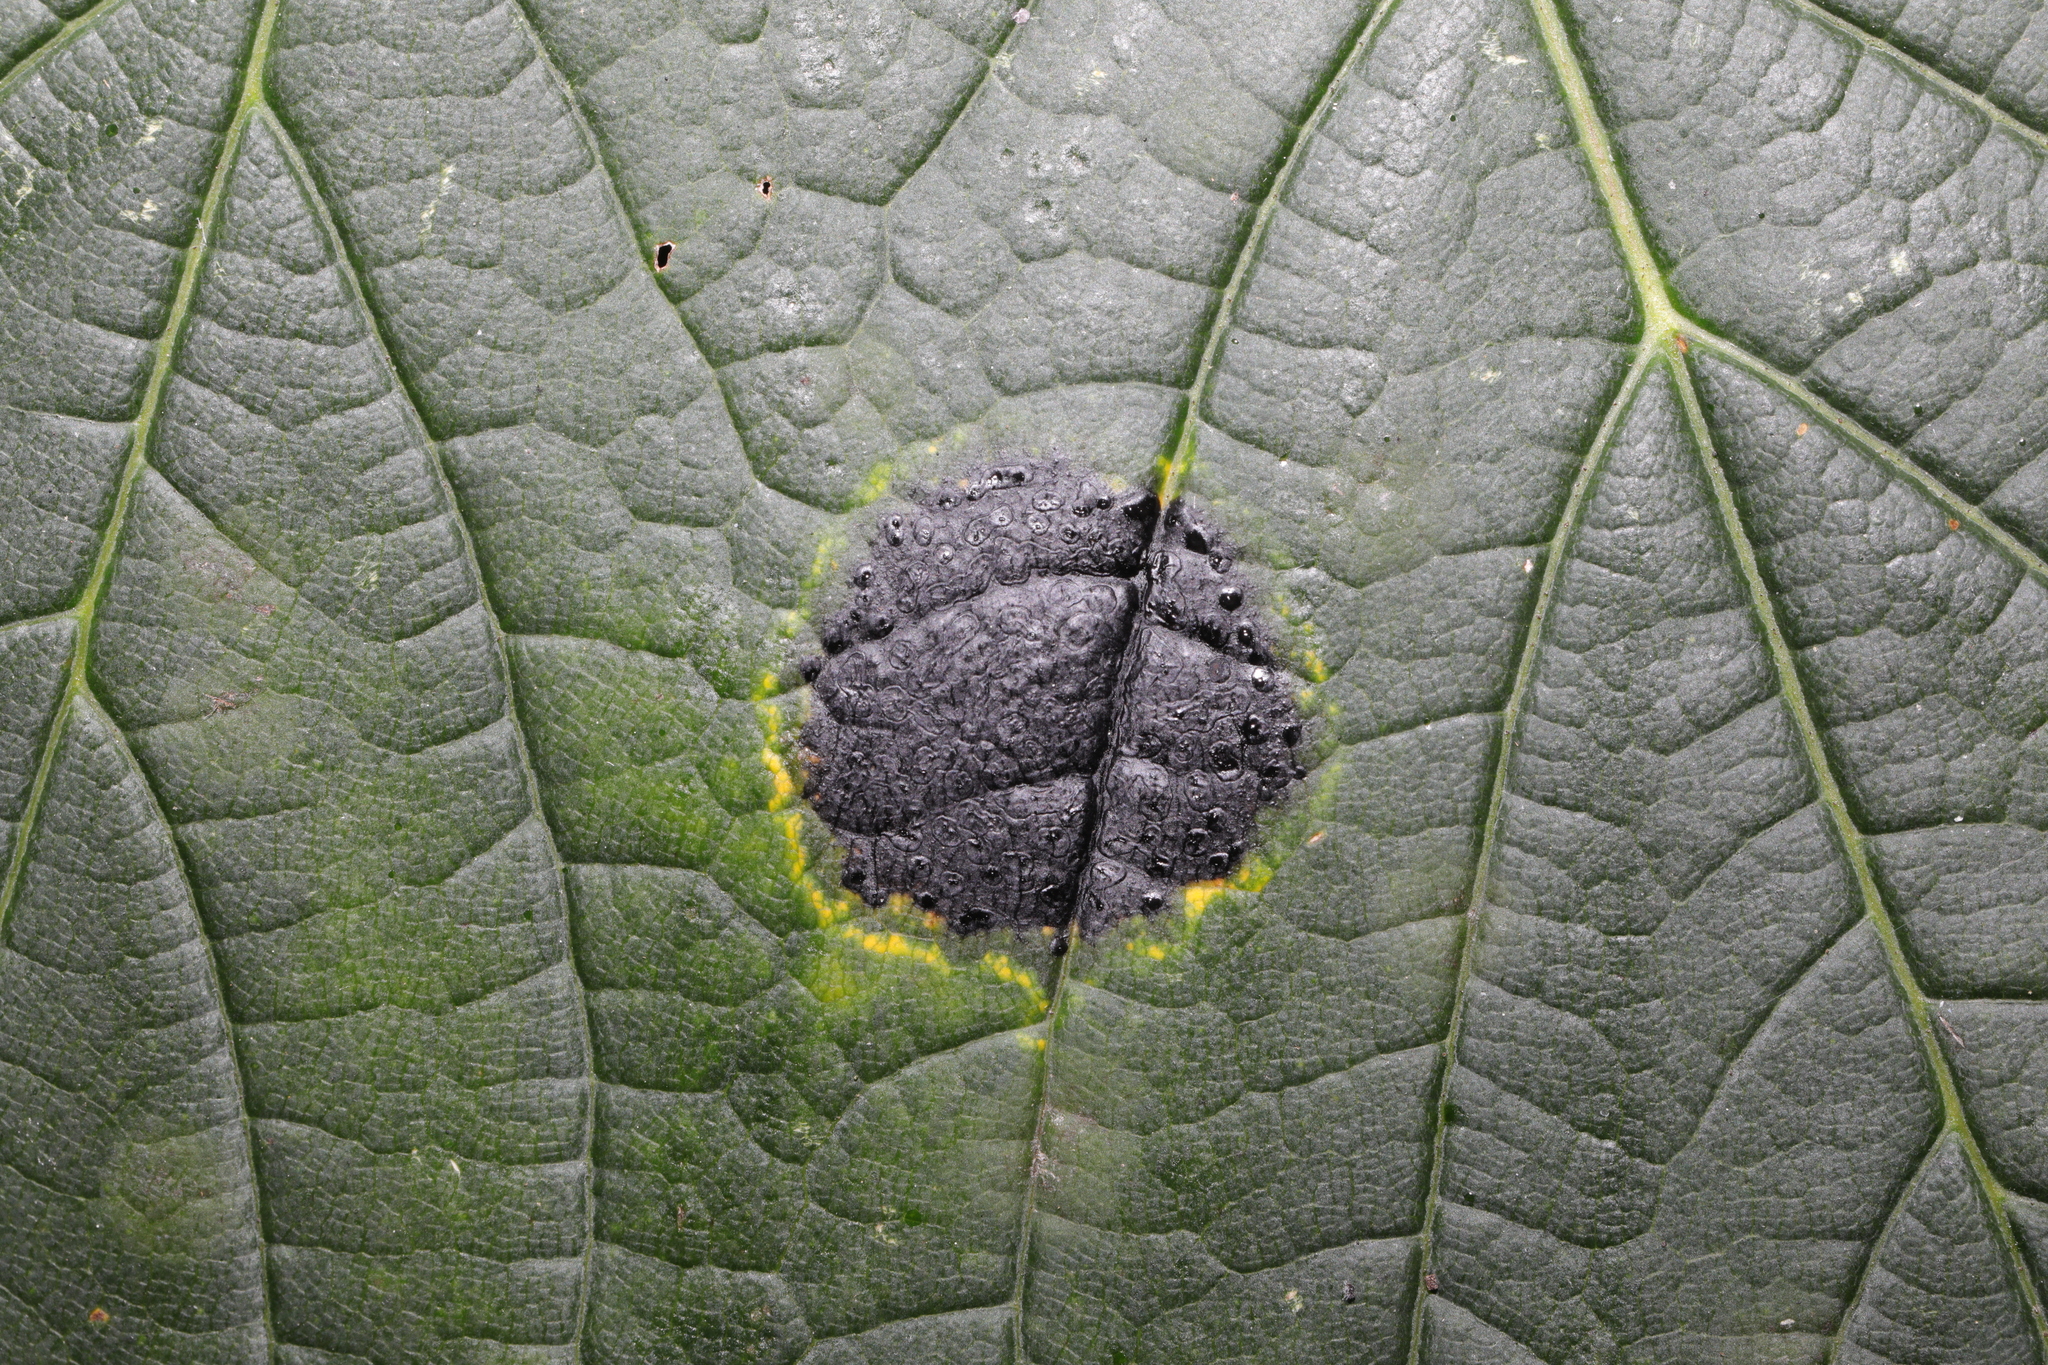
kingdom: Fungi
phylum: Ascomycota
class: Leotiomycetes
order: Rhytismatales
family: Rhytismataceae
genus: Rhytisma
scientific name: Rhytisma acerinum
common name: European tar spot
